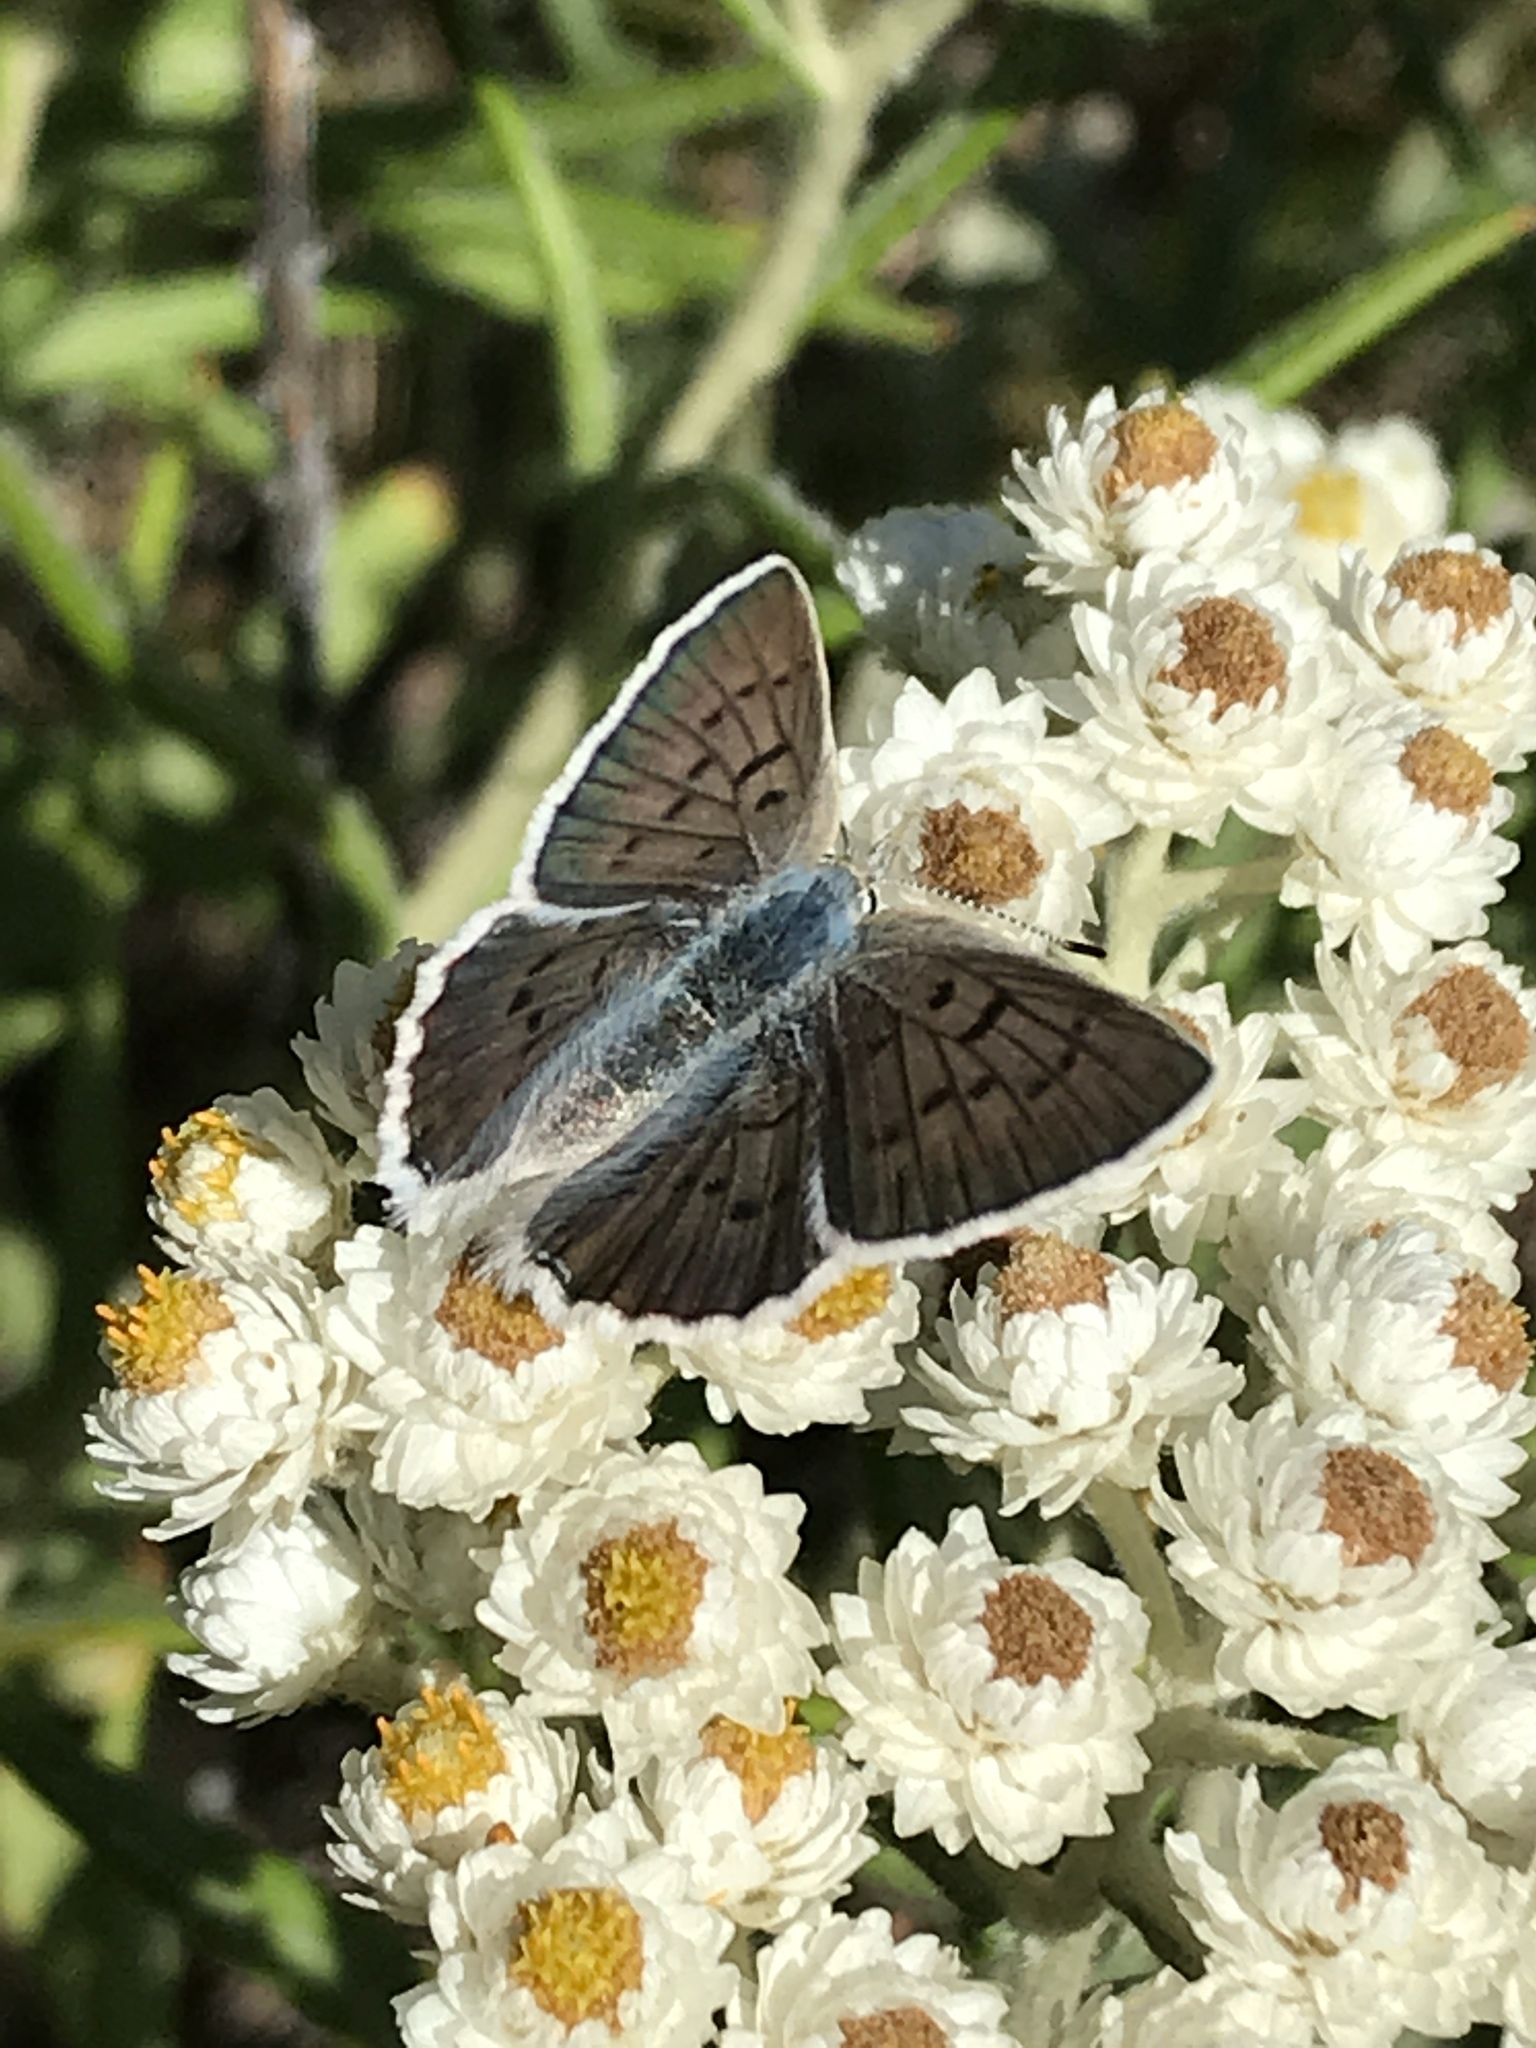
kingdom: Animalia
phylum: Arthropoda
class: Insecta
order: Lepidoptera
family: Lycaenidae
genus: Tharsalea
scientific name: Tharsalea heteronea
